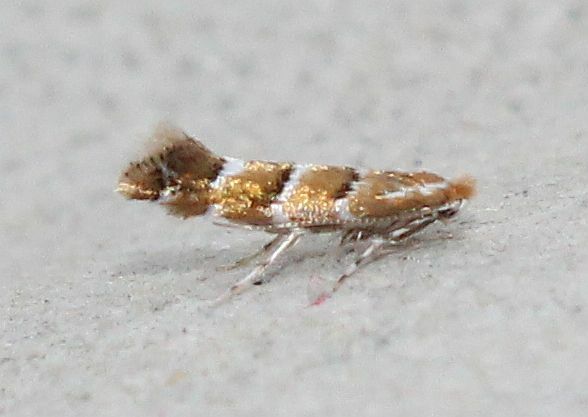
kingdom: Animalia
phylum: Arthropoda
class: Insecta
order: Lepidoptera
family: Gracillariidae
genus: Cameraria
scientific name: Cameraria ohridella
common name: Horse-chestnut leaf-miner
